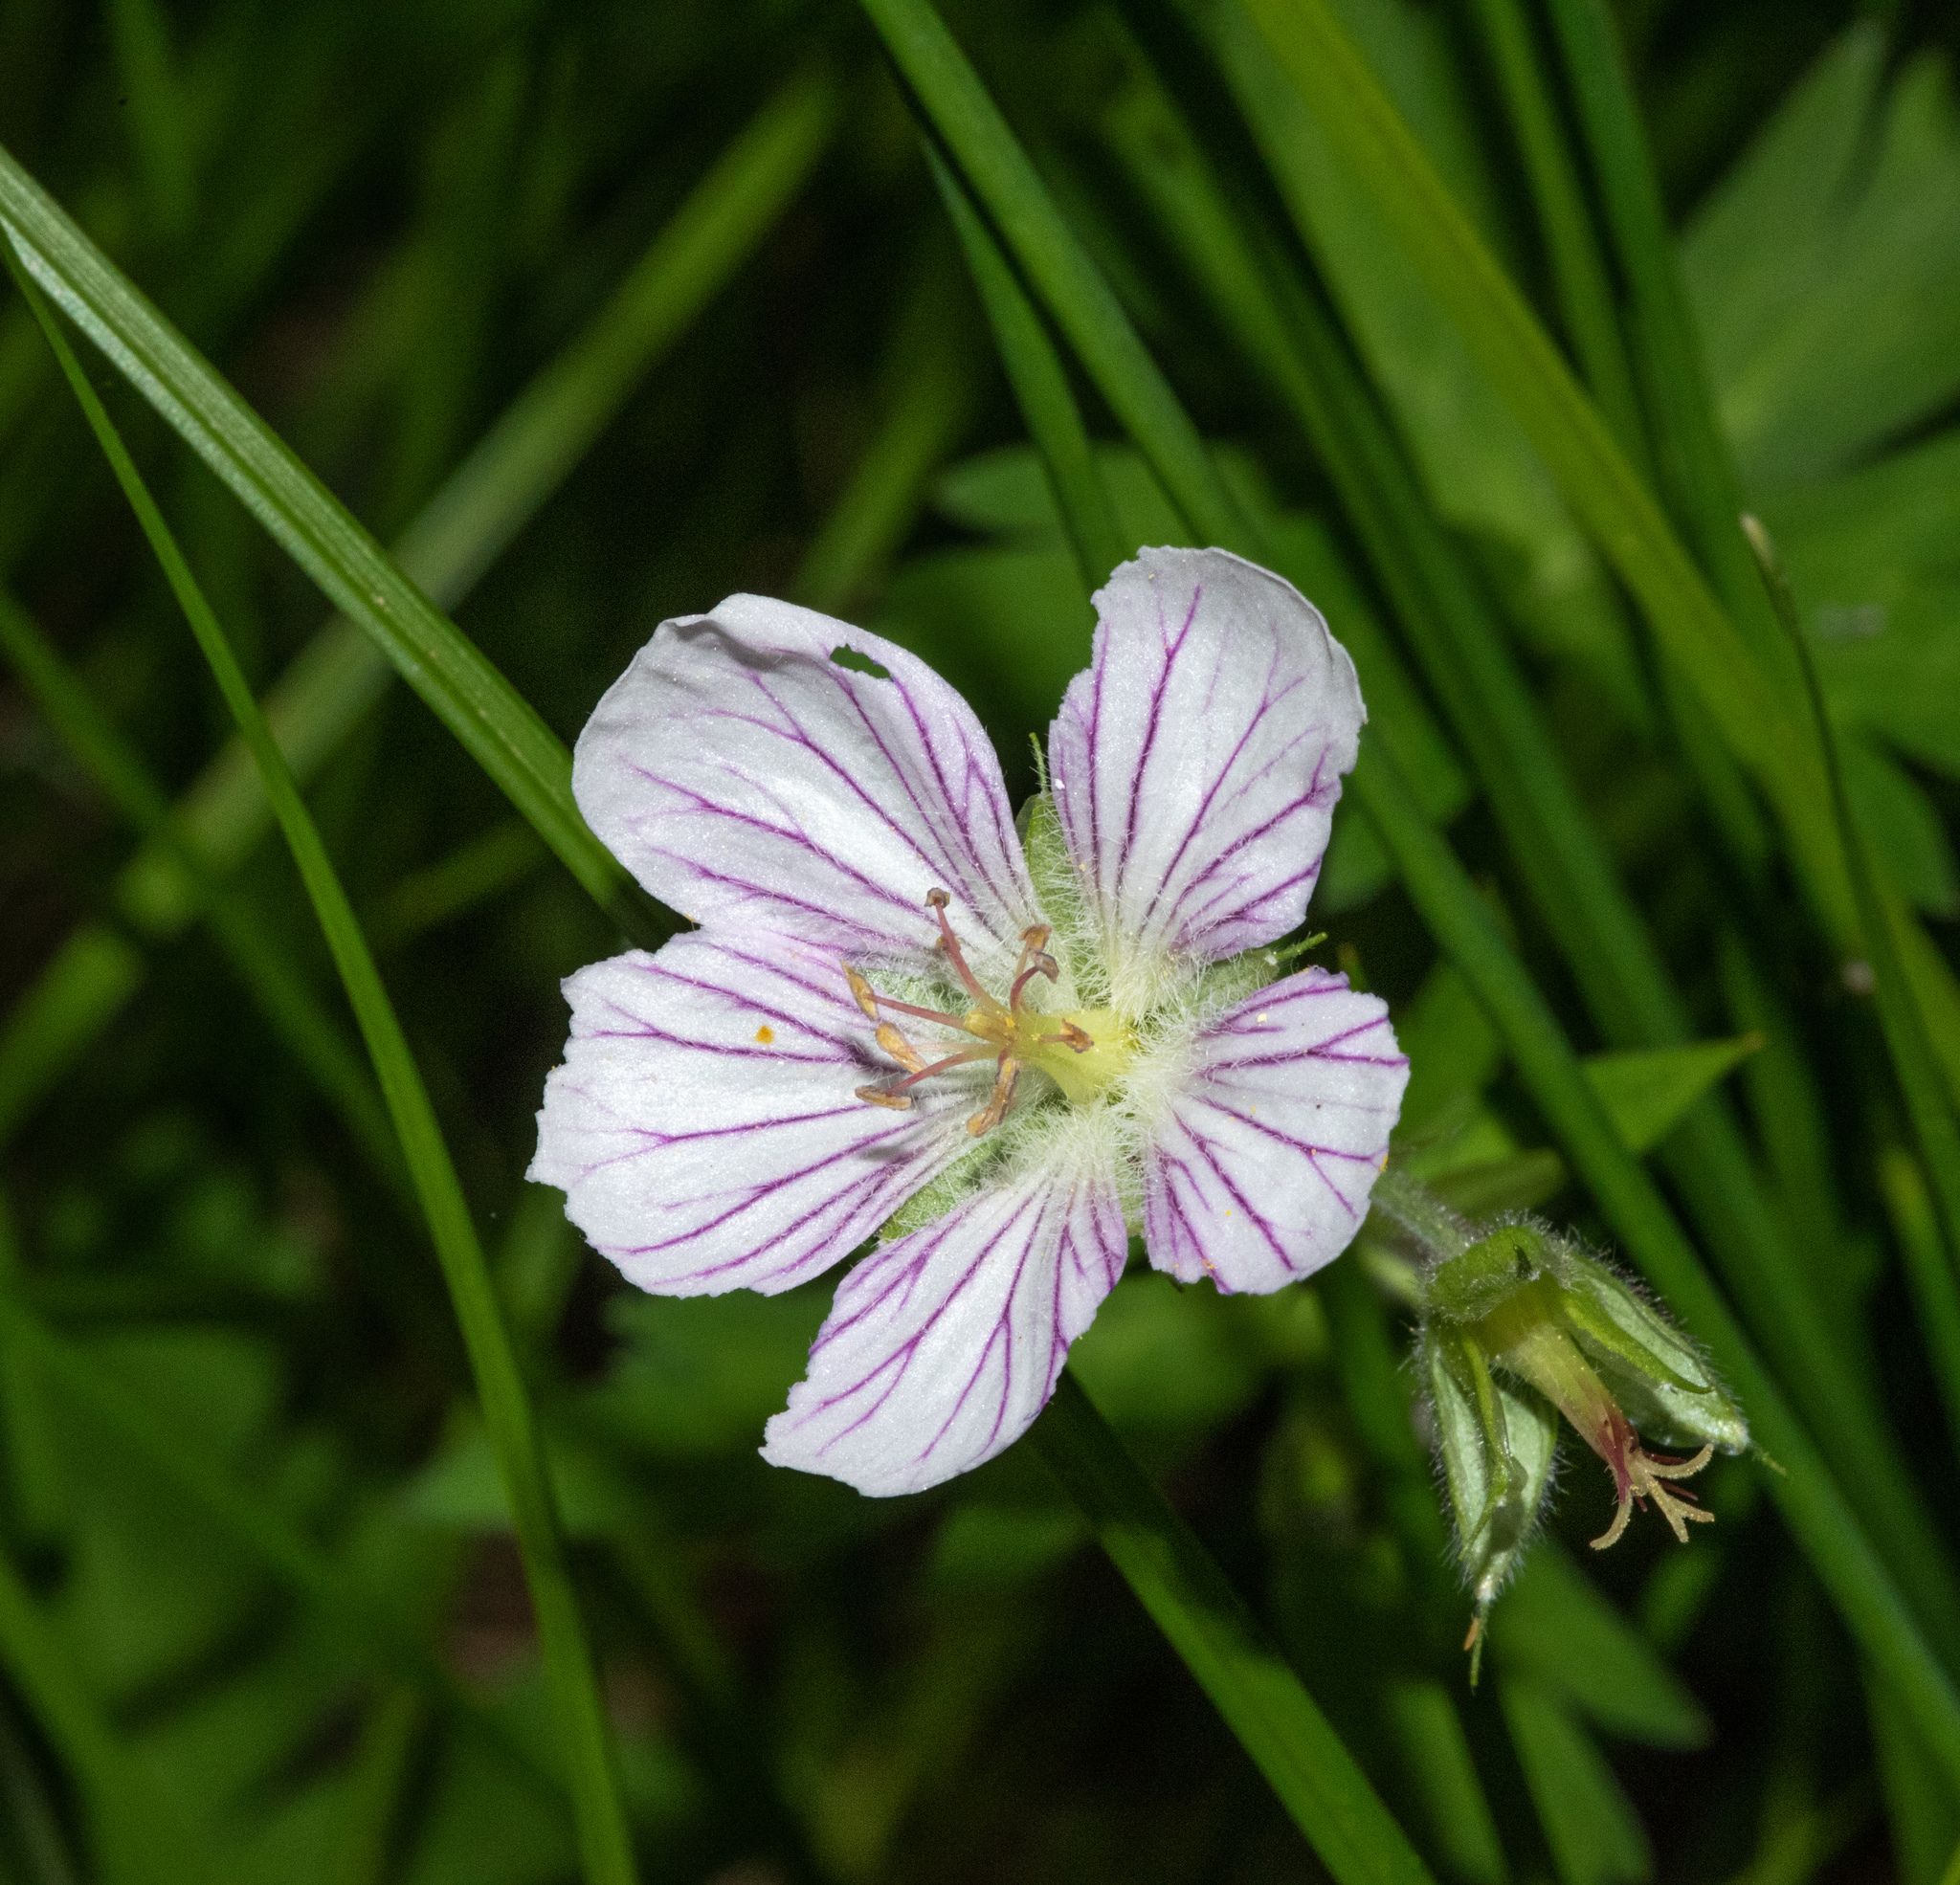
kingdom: Plantae
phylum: Tracheophyta
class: Magnoliopsida
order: Geraniales
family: Geraniaceae
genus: Geranium
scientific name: Geranium richardsonii
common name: Richardson's crane's-bill
